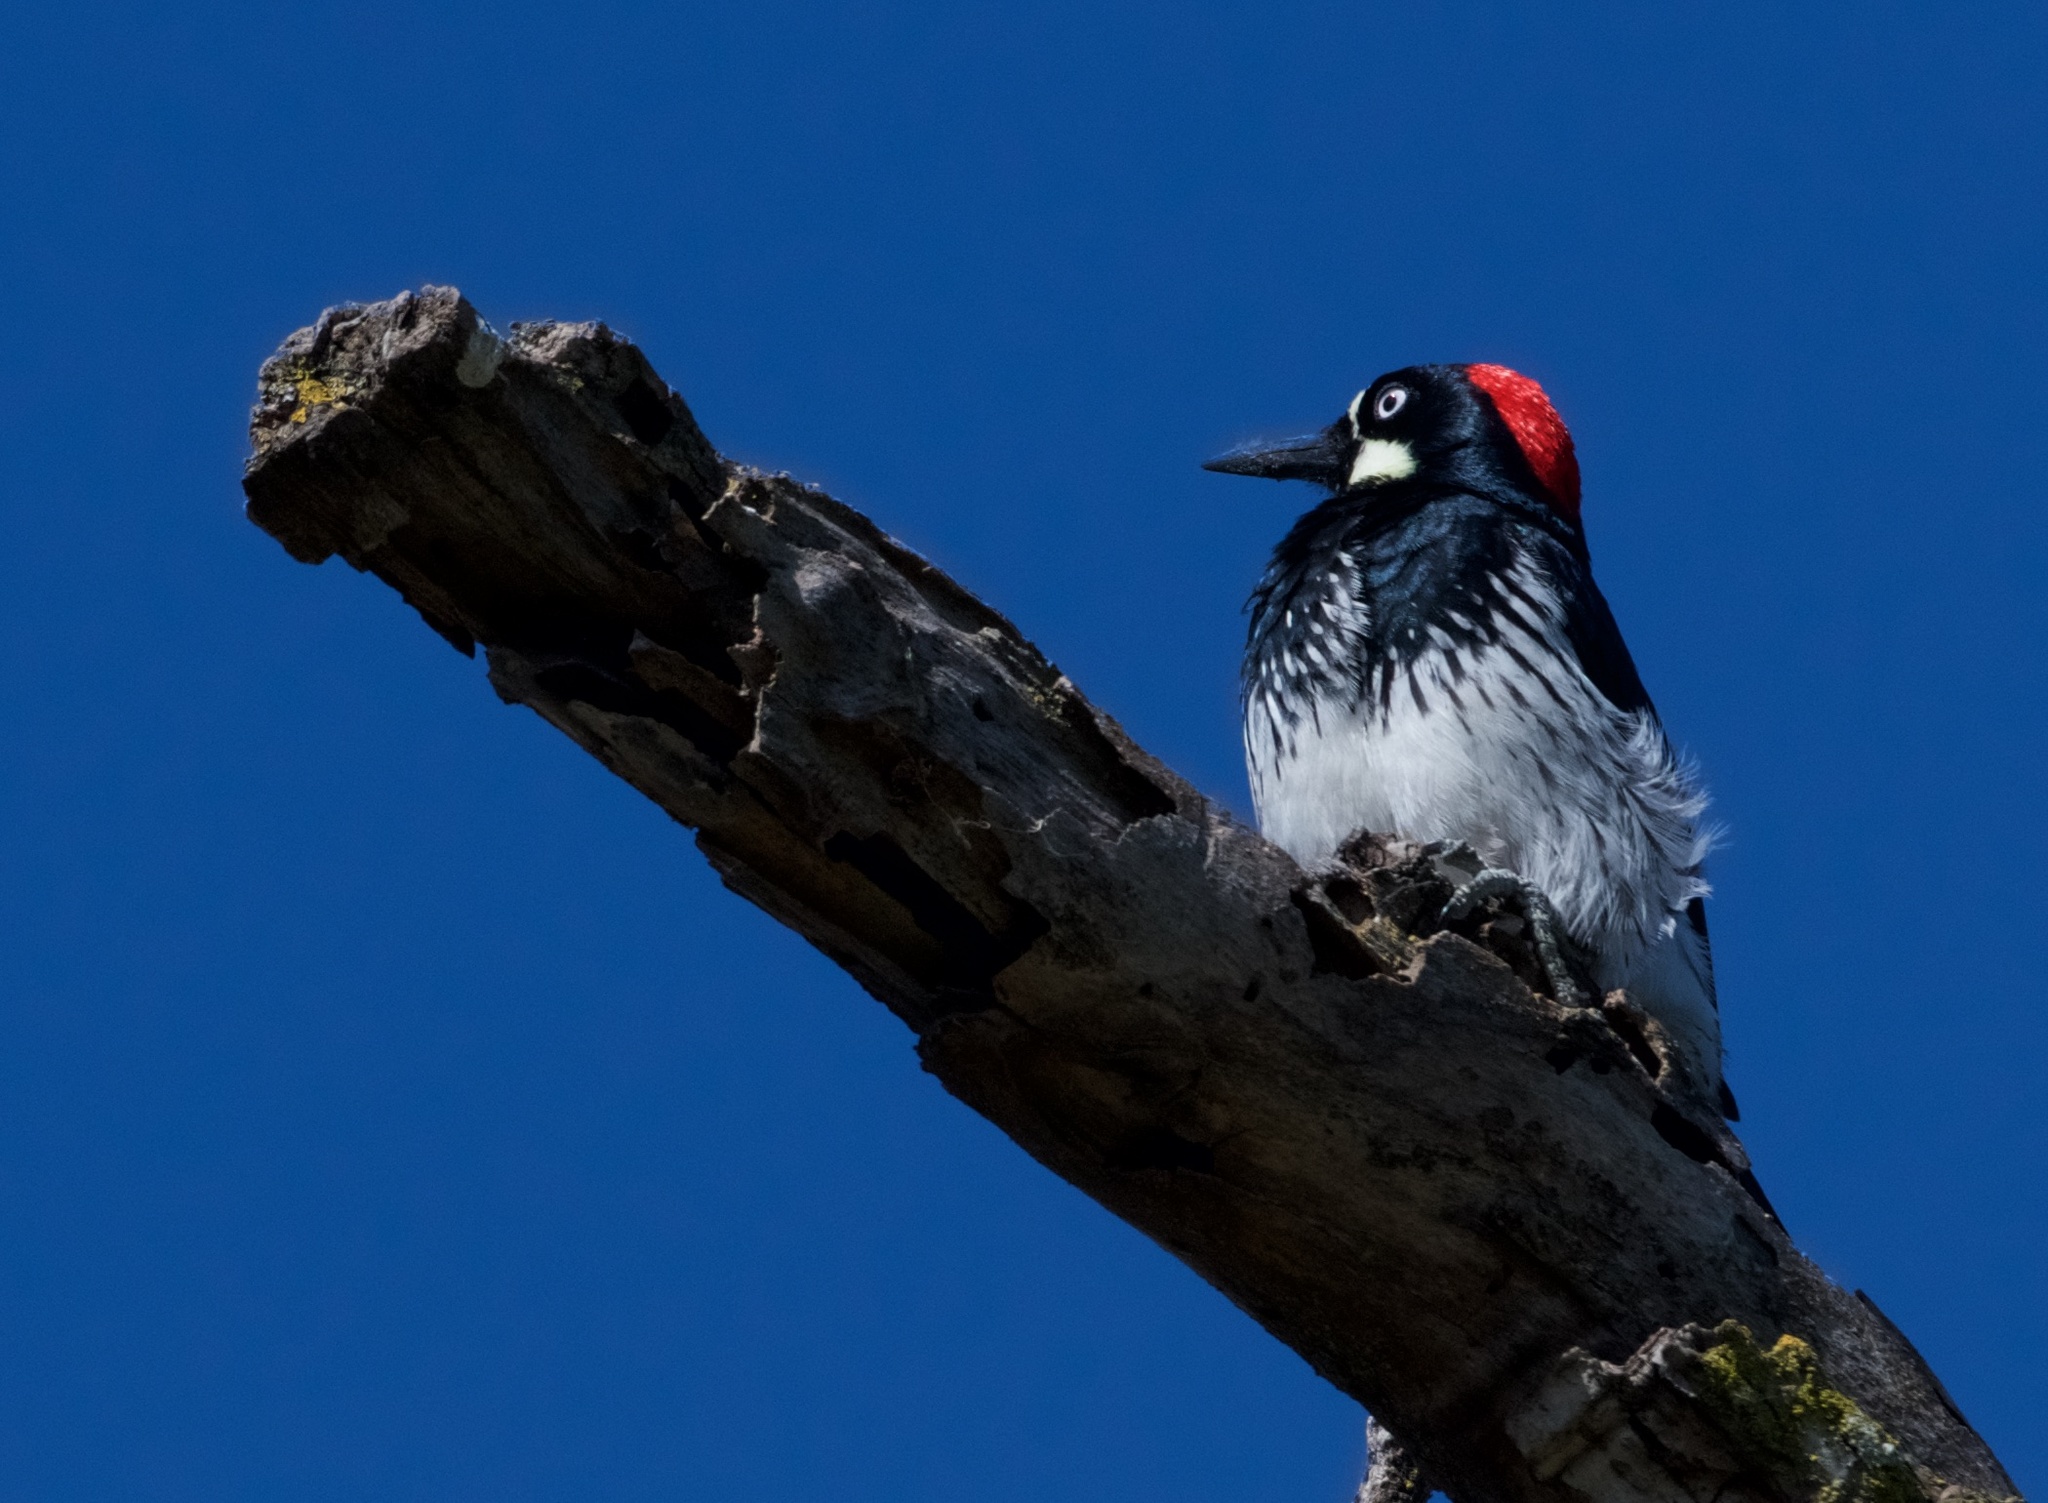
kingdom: Animalia
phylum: Chordata
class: Aves
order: Piciformes
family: Picidae
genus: Melanerpes
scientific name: Melanerpes formicivorus
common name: Acorn woodpecker
